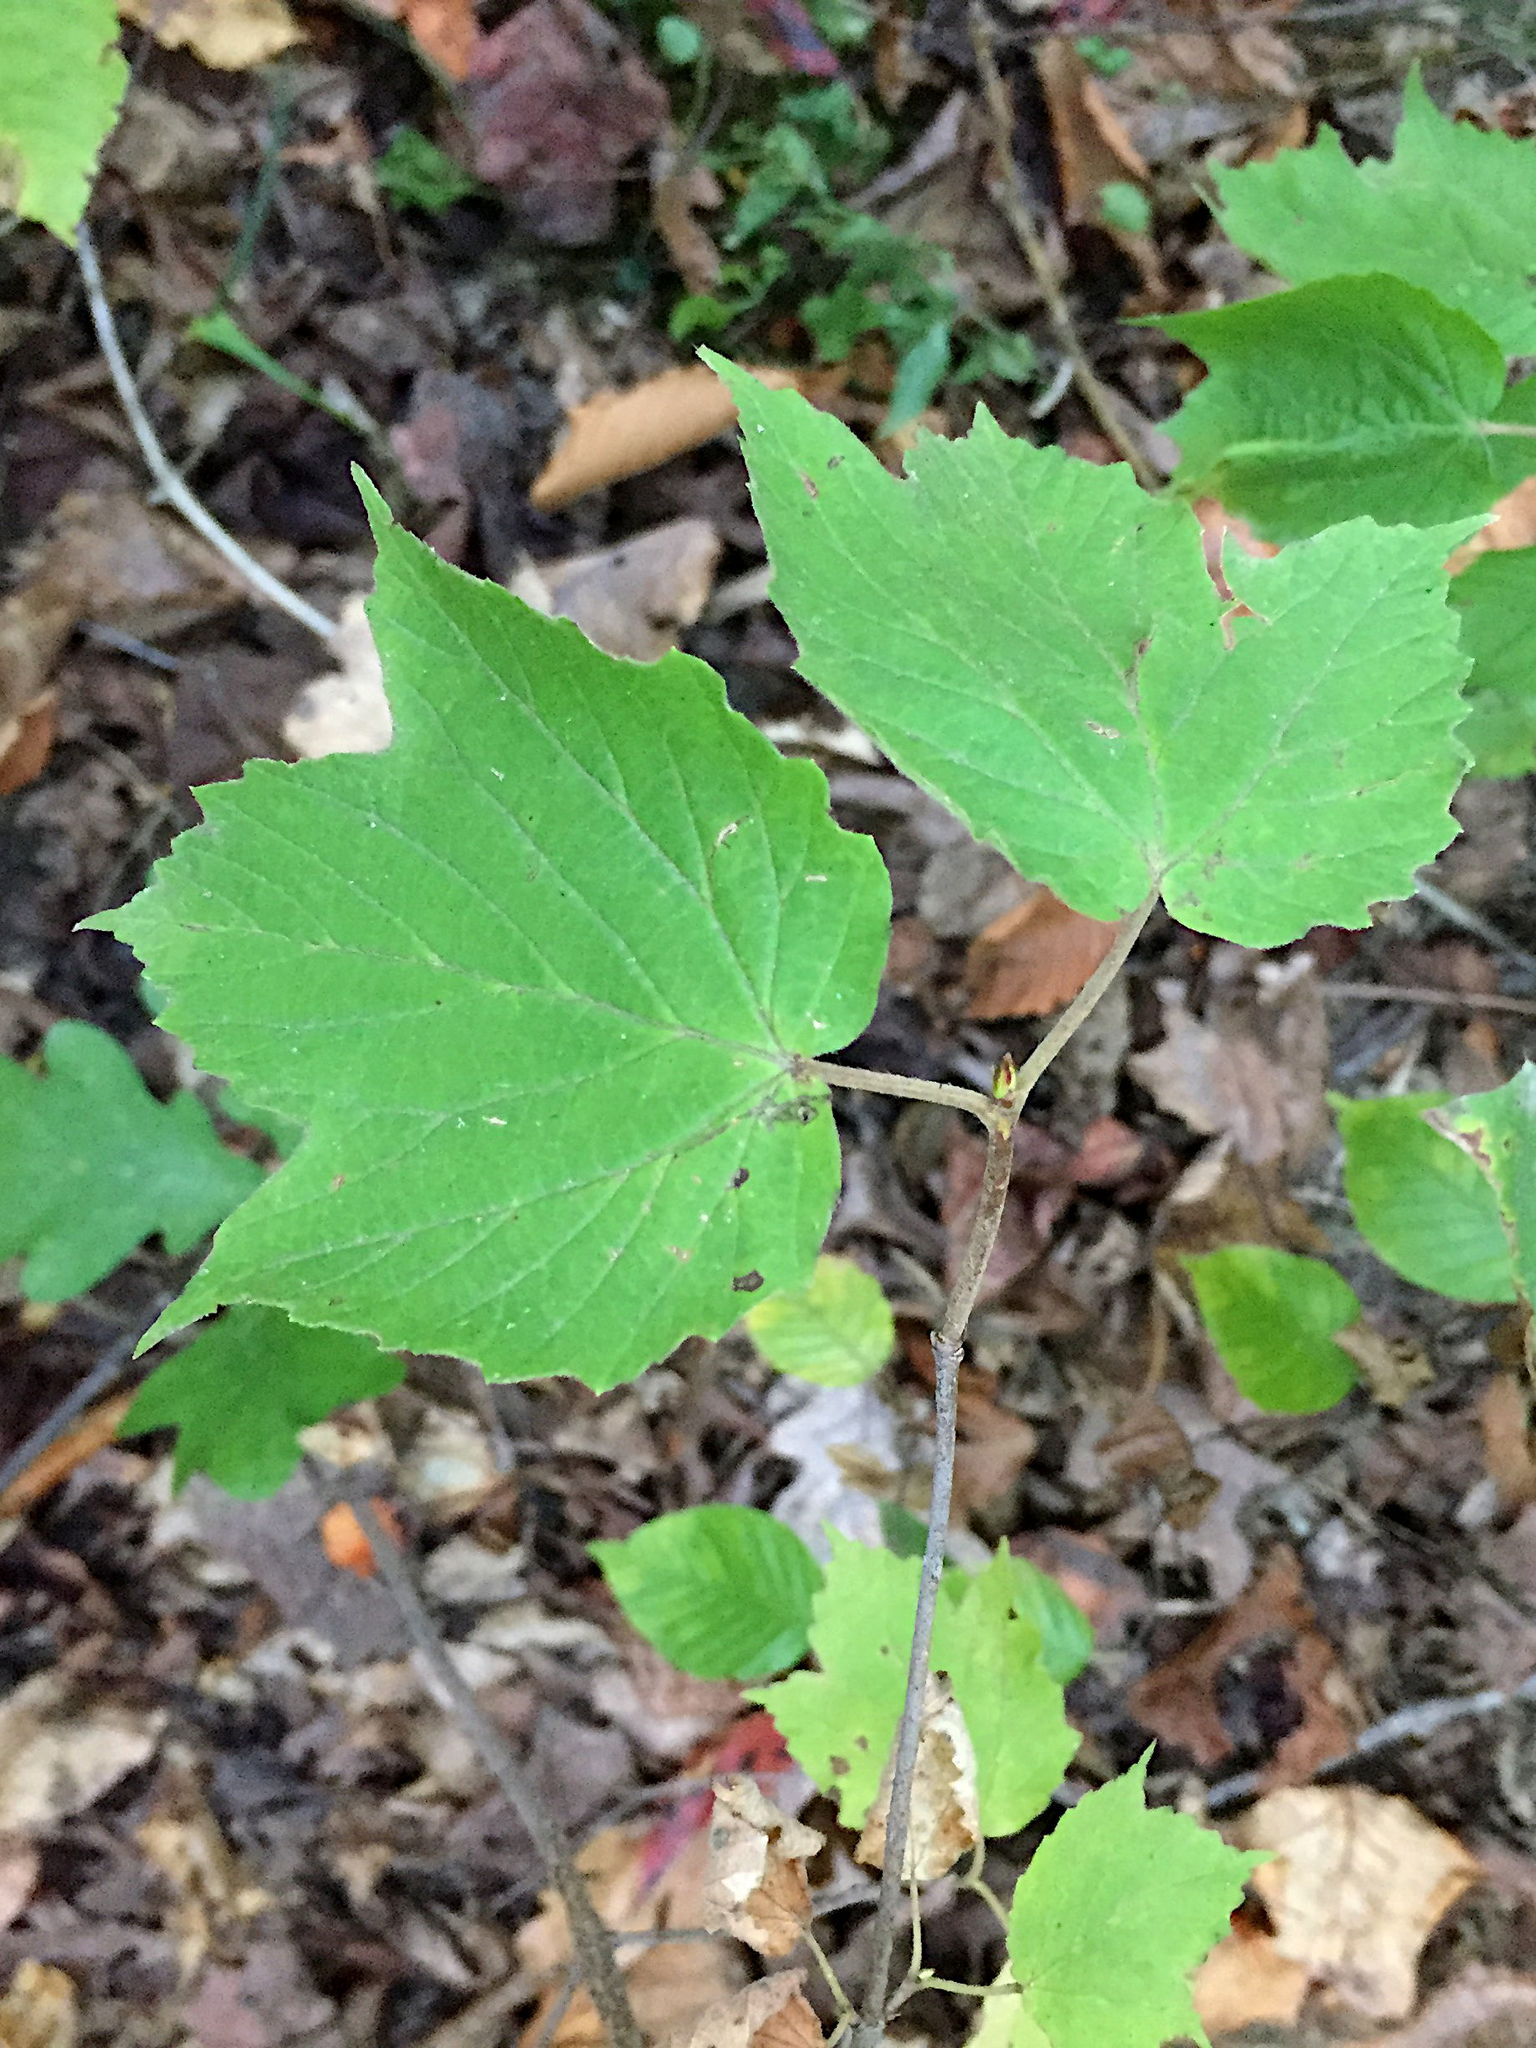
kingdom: Plantae
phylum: Tracheophyta
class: Magnoliopsida
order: Dipsacales
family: Viburnaceae
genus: Viburnum
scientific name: Viburnum acerifolium
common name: Dockmackie
